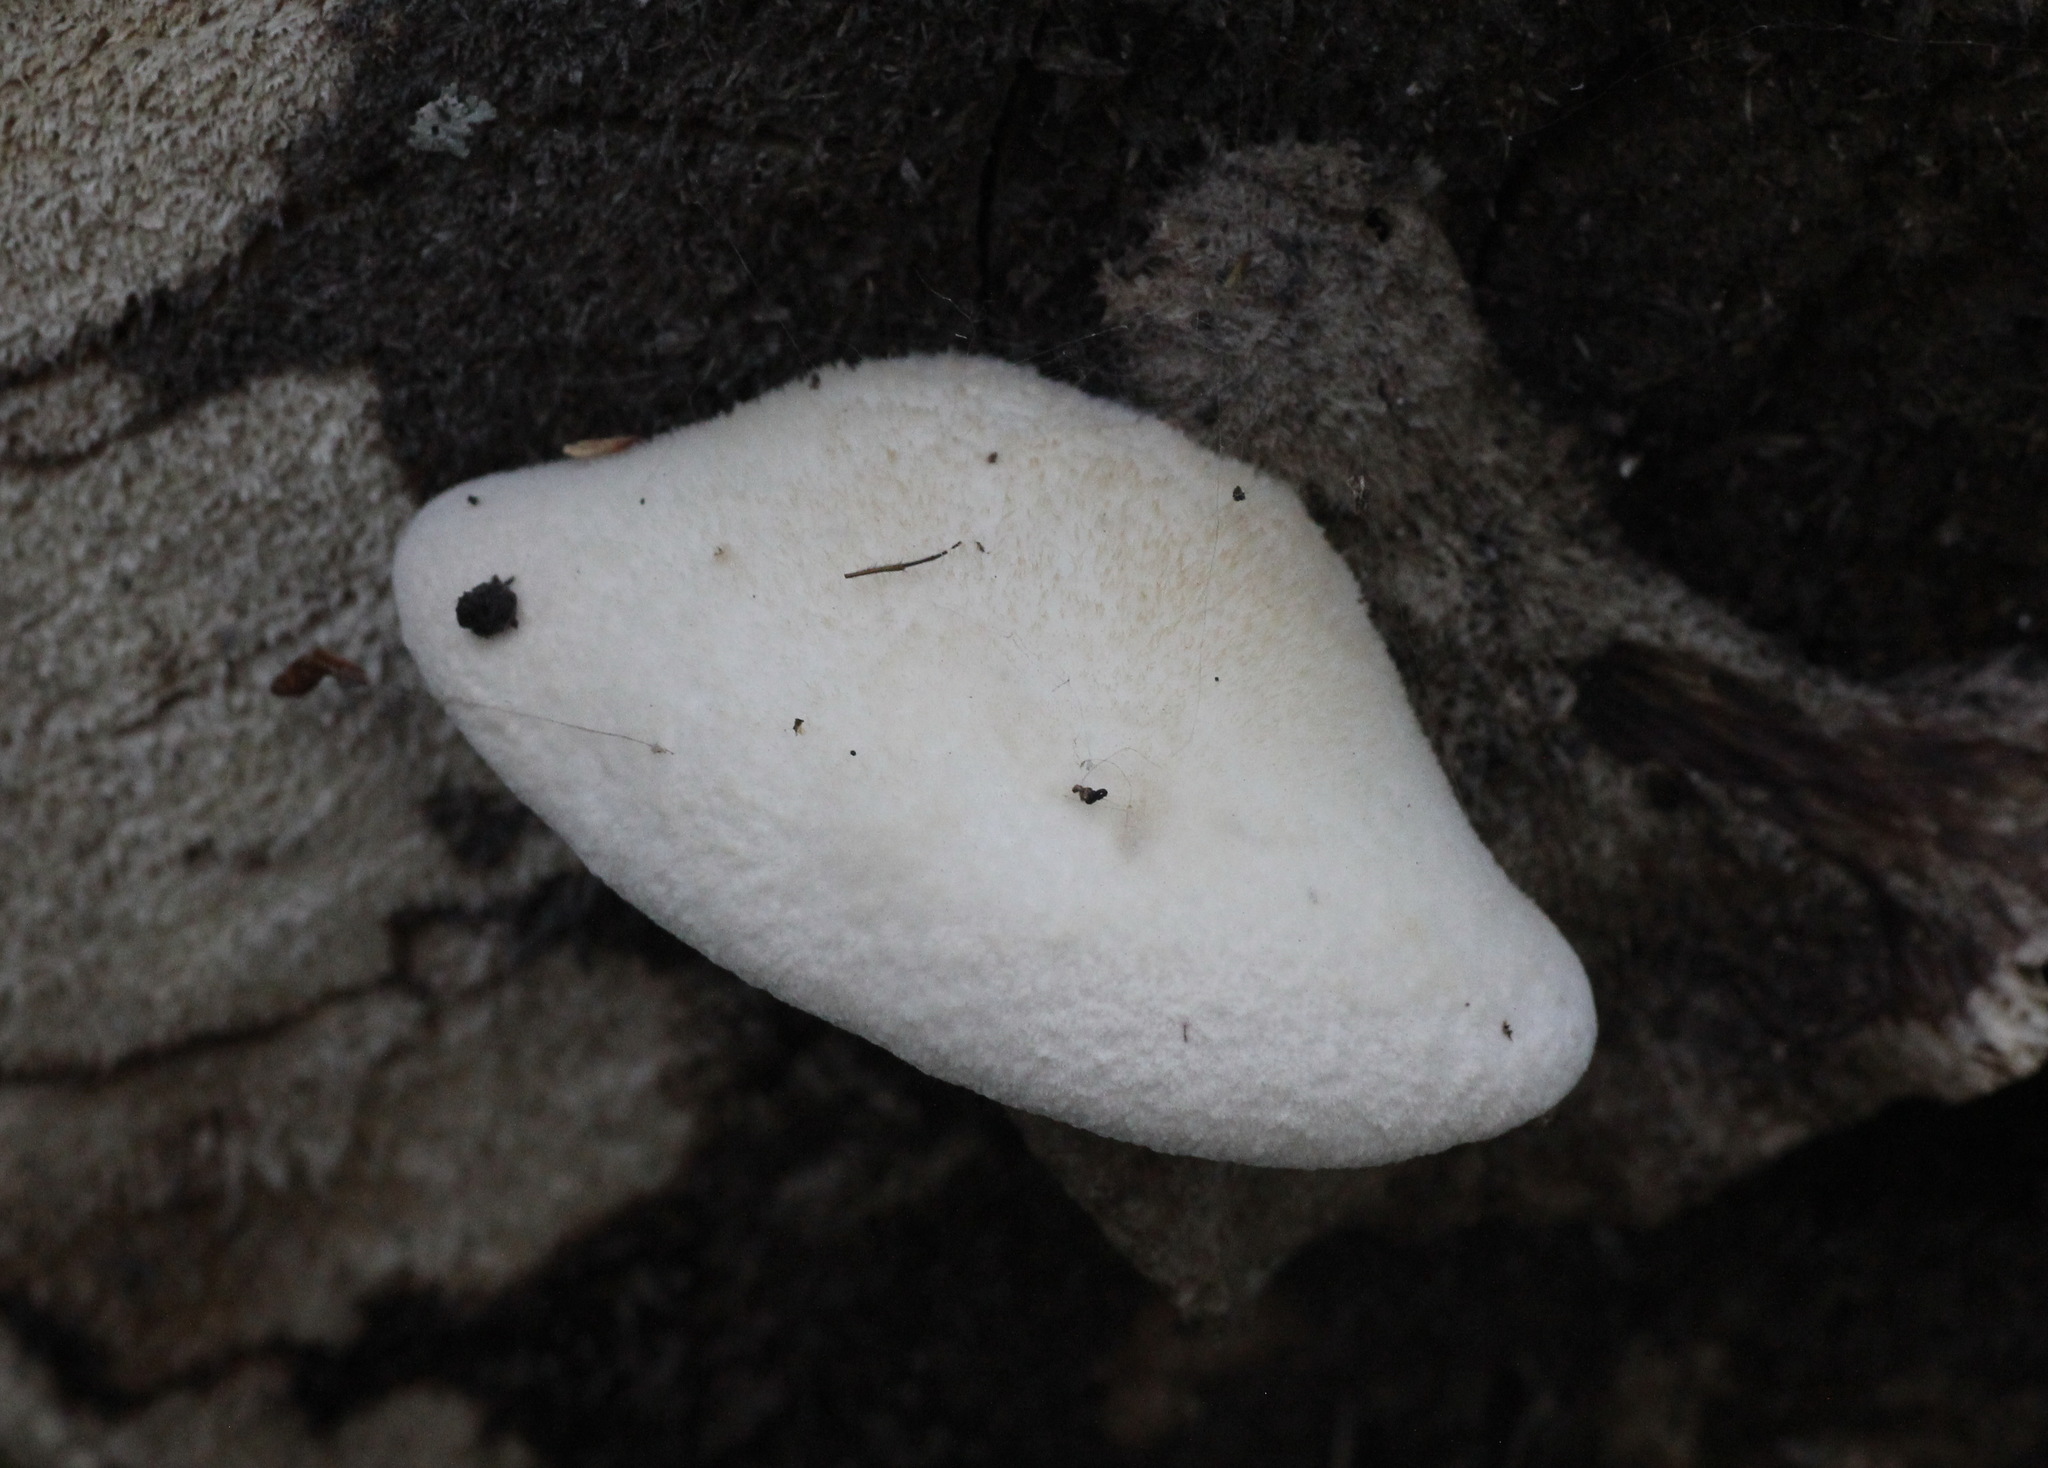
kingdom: Fungi
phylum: Basidiomycota
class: Agaricomycetes
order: Agaricales
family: Pleurotaceae
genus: Lignomyces
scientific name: Lignomyces vetlinianus
